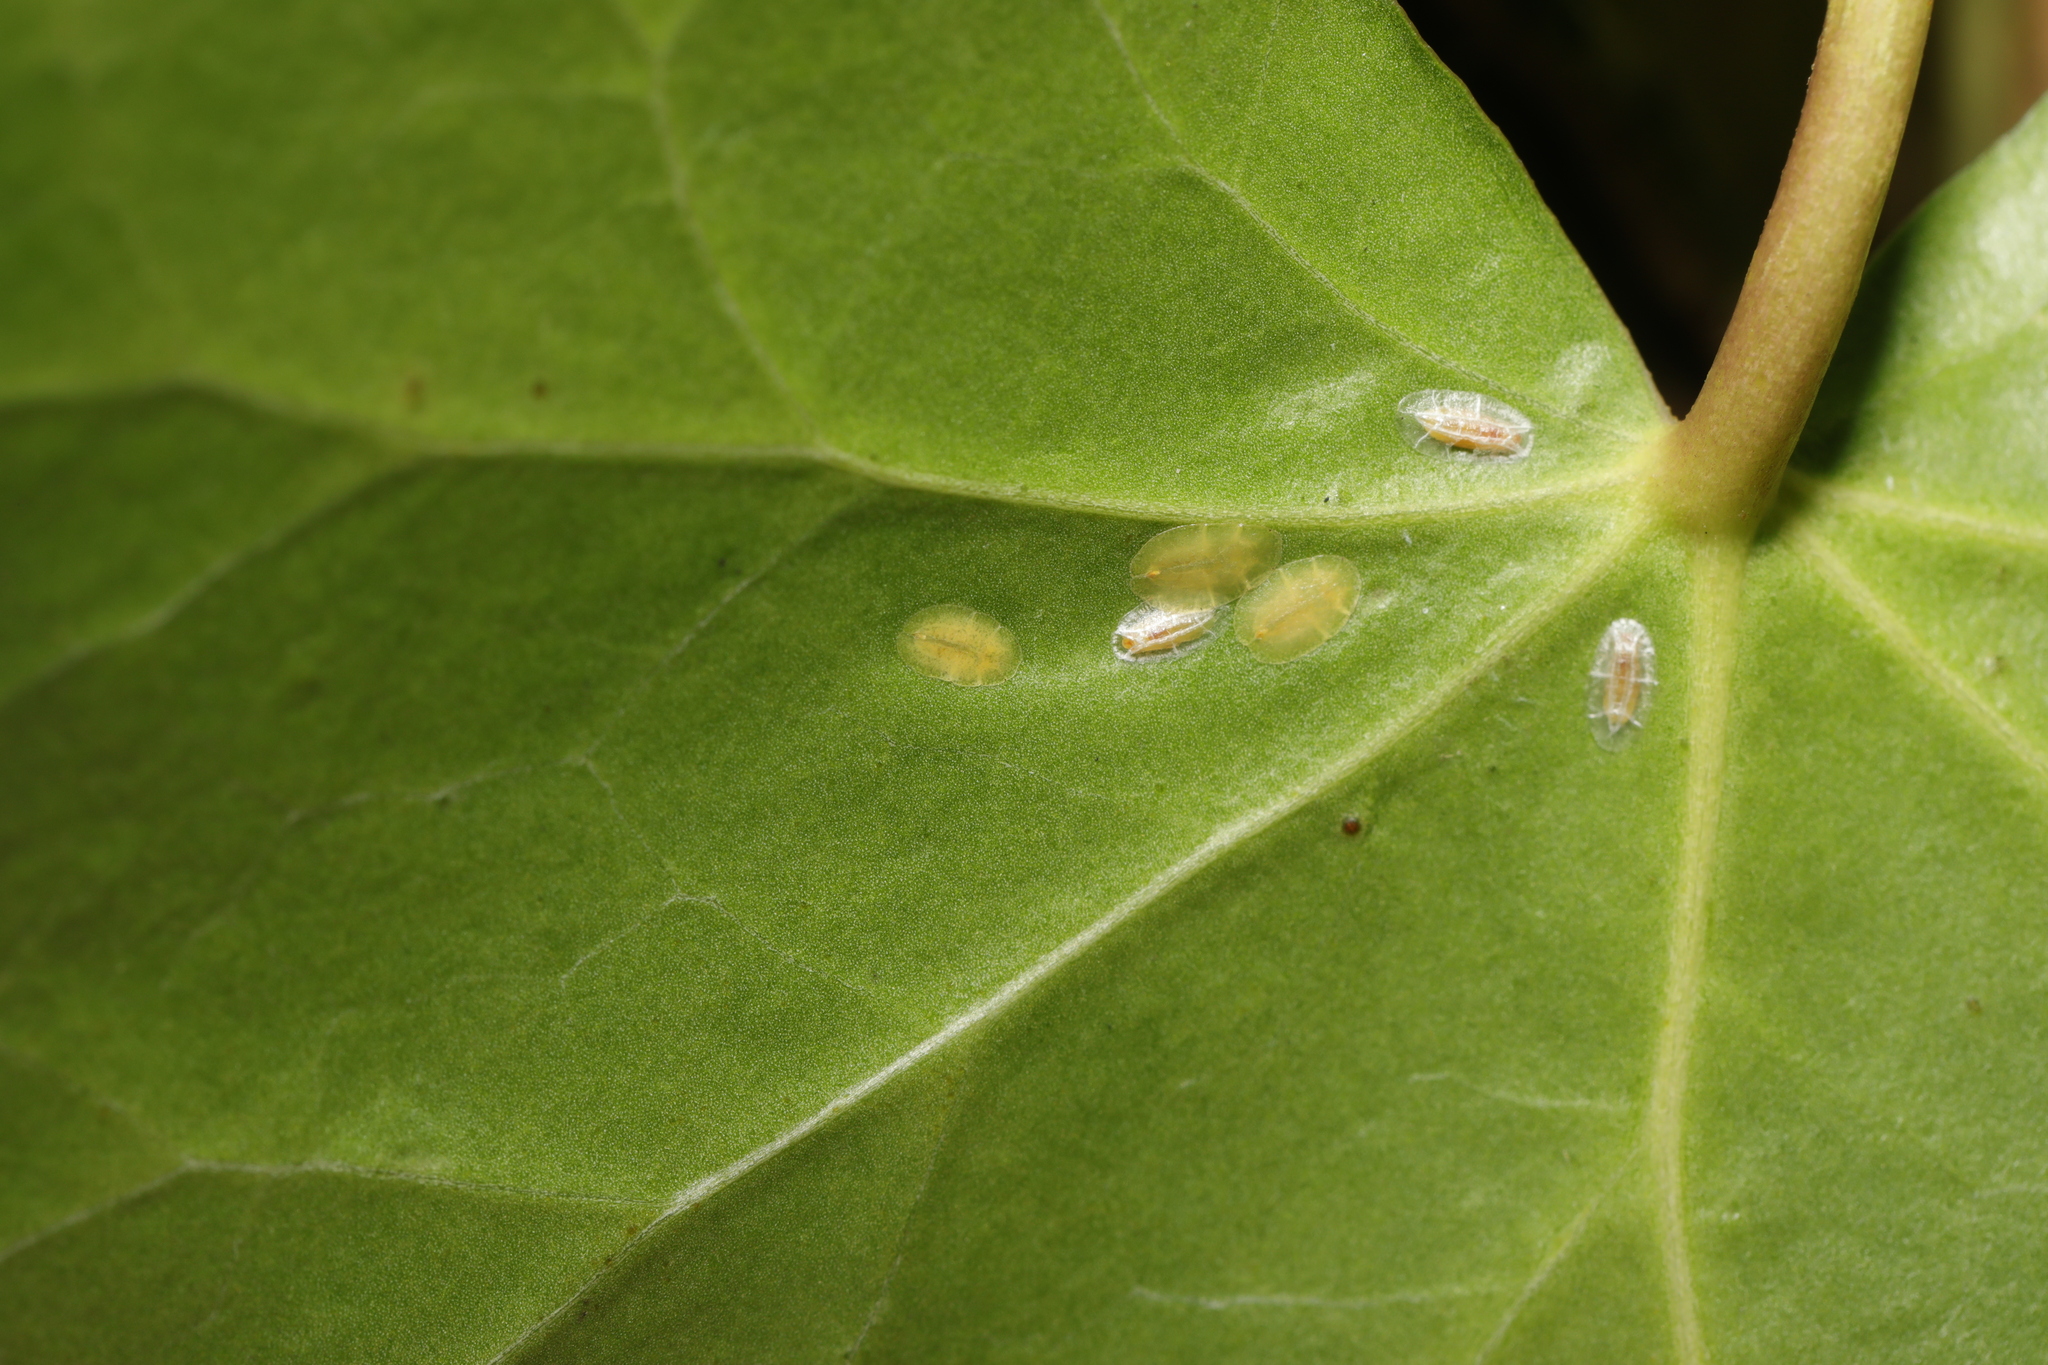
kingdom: Animalia
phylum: Arthropoda
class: Insecta
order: Hemiptera
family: Coccidae
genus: Lichtensia
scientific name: Lichtensia viburni
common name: Viburnum cushion scale
